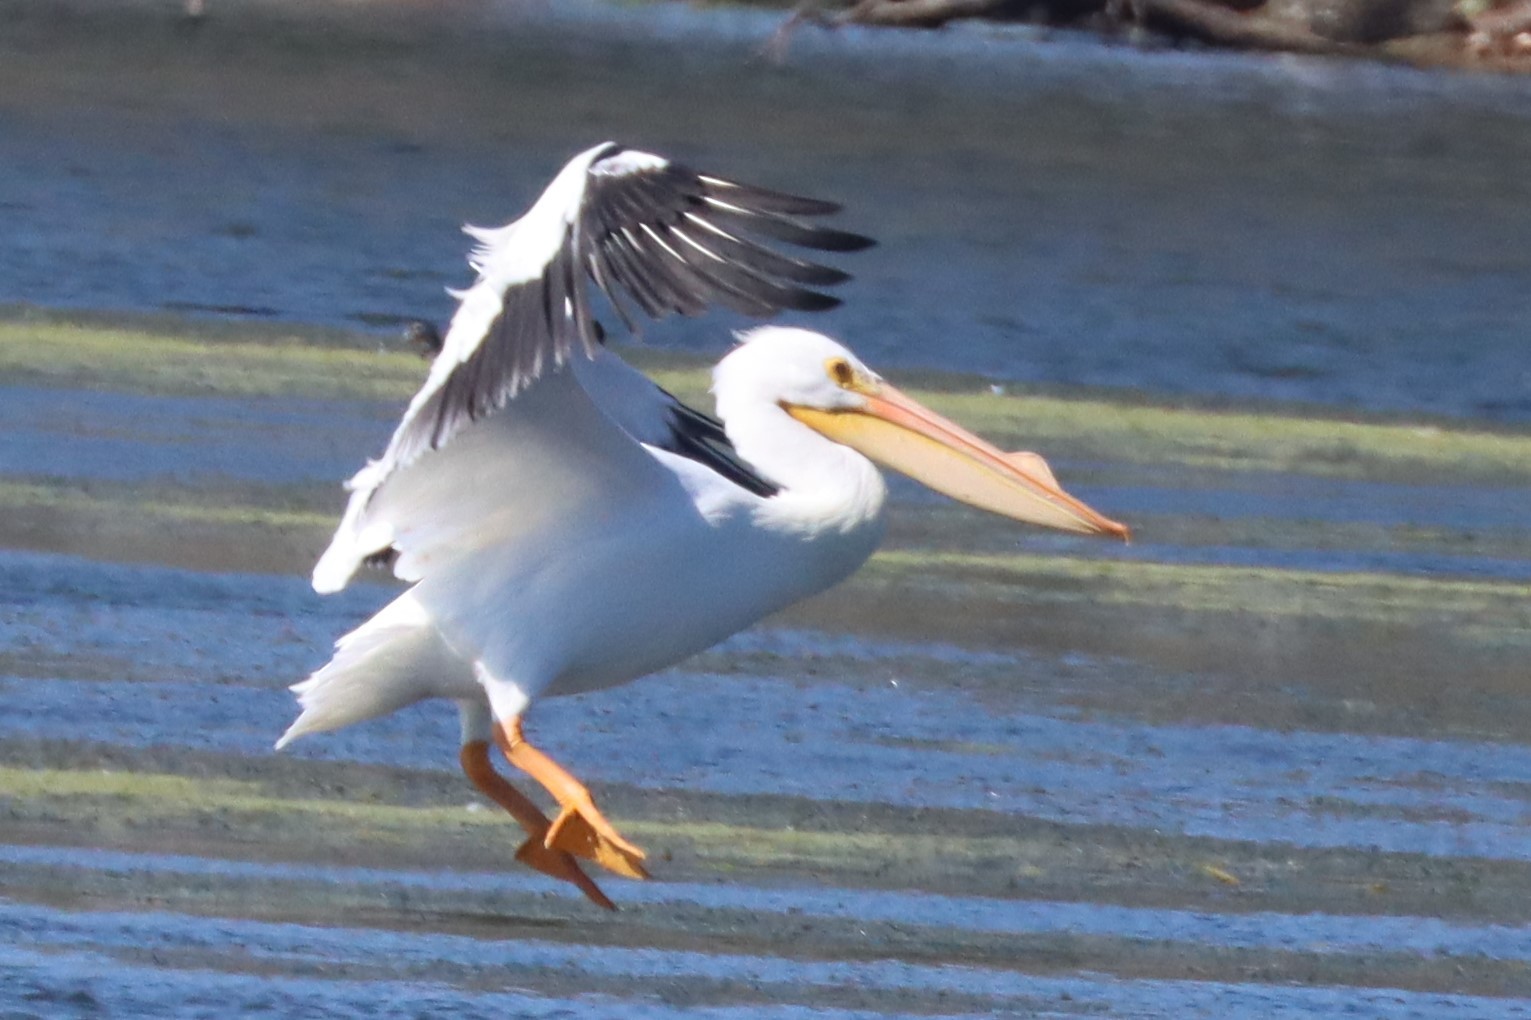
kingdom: Animalia
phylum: Chordata
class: Aves
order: Pelecaniformes
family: Pelecanidae
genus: Pelecanus
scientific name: Pelecanus erythrorhynchos
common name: American white pelican
